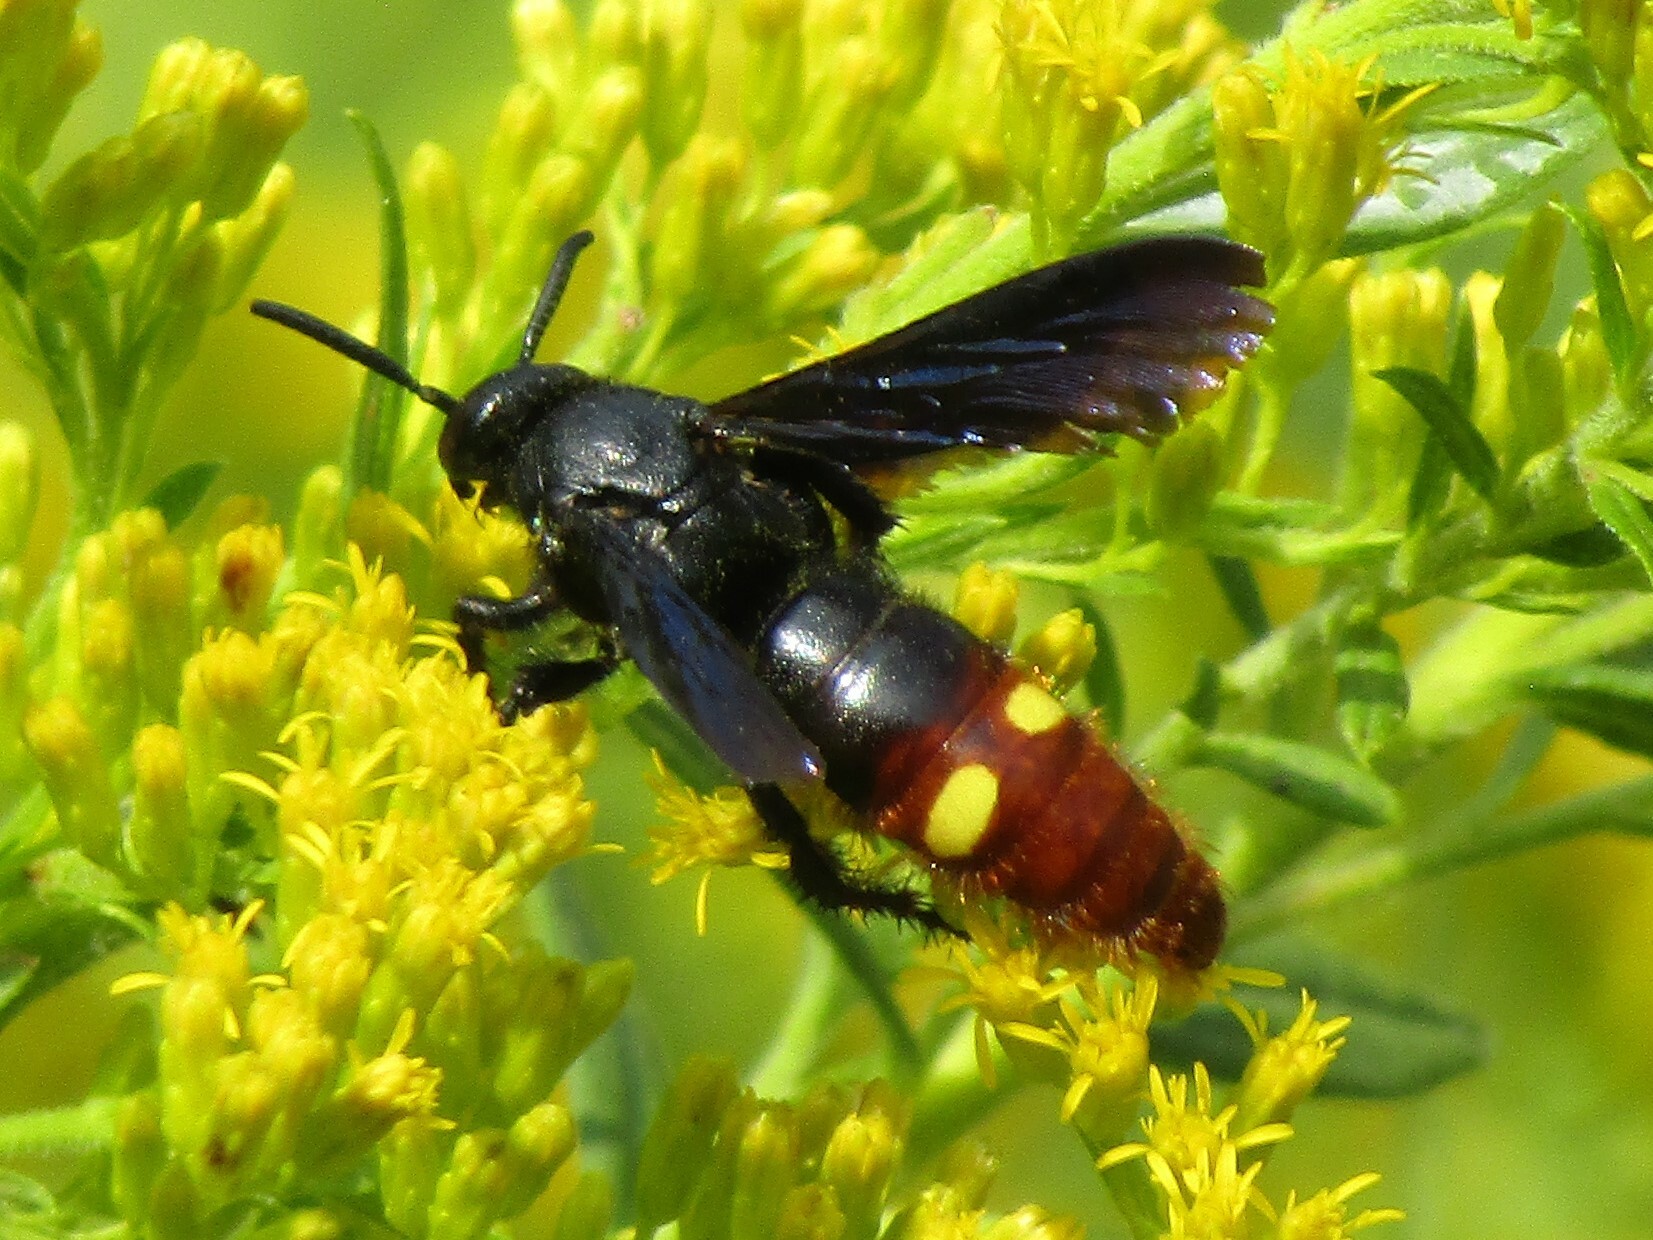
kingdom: Animalia
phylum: Arthropoda
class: Insecta
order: Hymenoptera
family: Scoliidae
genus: Scolia
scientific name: Scolia dubia
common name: Blue-winged scoliid wasp
